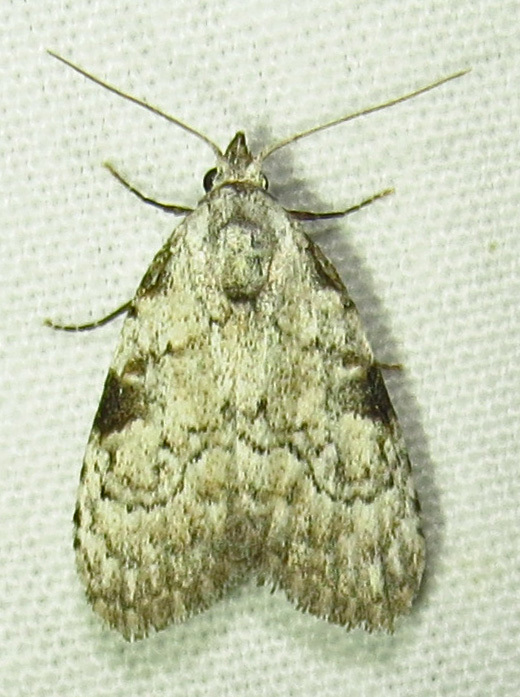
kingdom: Animalia
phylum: Arthropoda
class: Insecta
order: Lepidoptera
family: Nolidae
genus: Meganola
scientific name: Meganola minuscula
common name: Confused meganola moth
